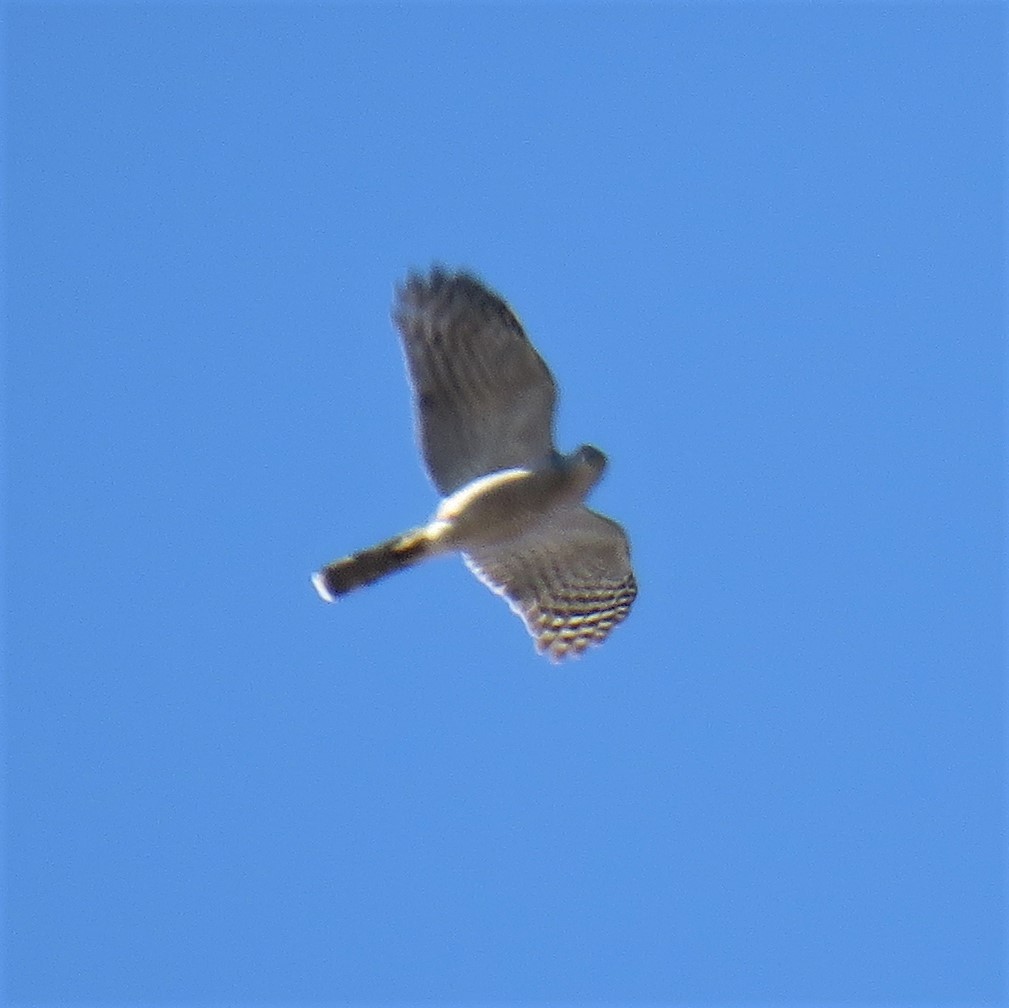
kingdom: Animalia
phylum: Chordata
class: Aves
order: Accipitriformes
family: Accipitridae
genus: Accipiter
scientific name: Accipiter tachiro
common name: African goshawk
